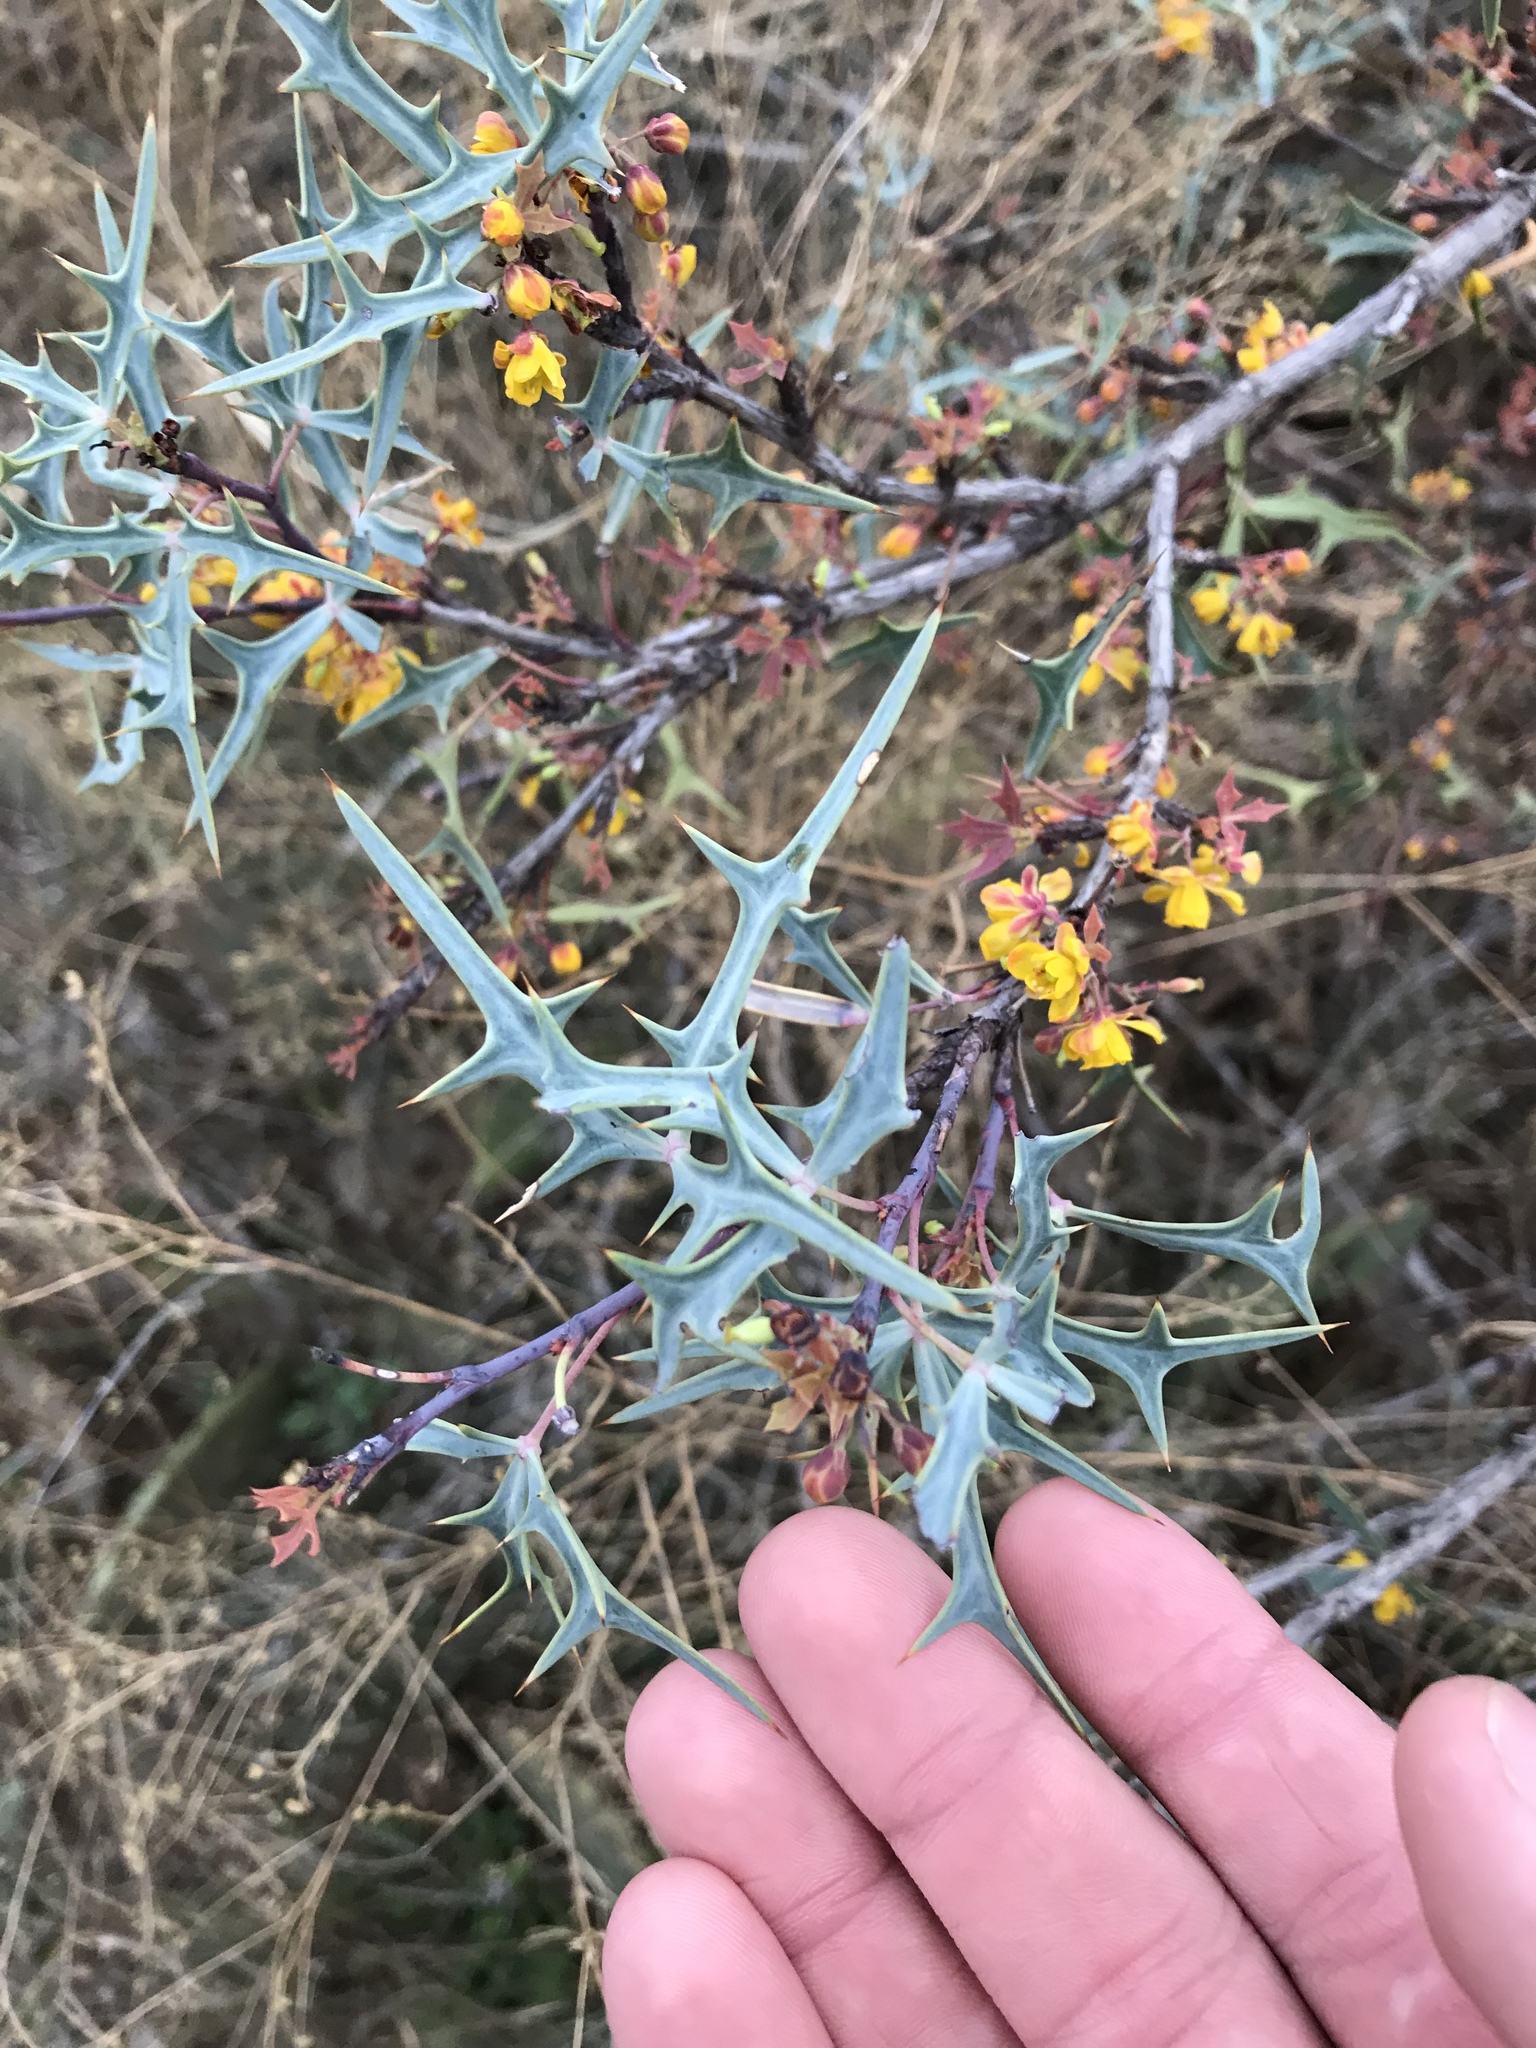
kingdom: Plantae
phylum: Tracheophyta
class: Magnoliopsida
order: Ranunculales
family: Berberidaceae
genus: Alloberberis
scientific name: Alloberberis trifoliolata
